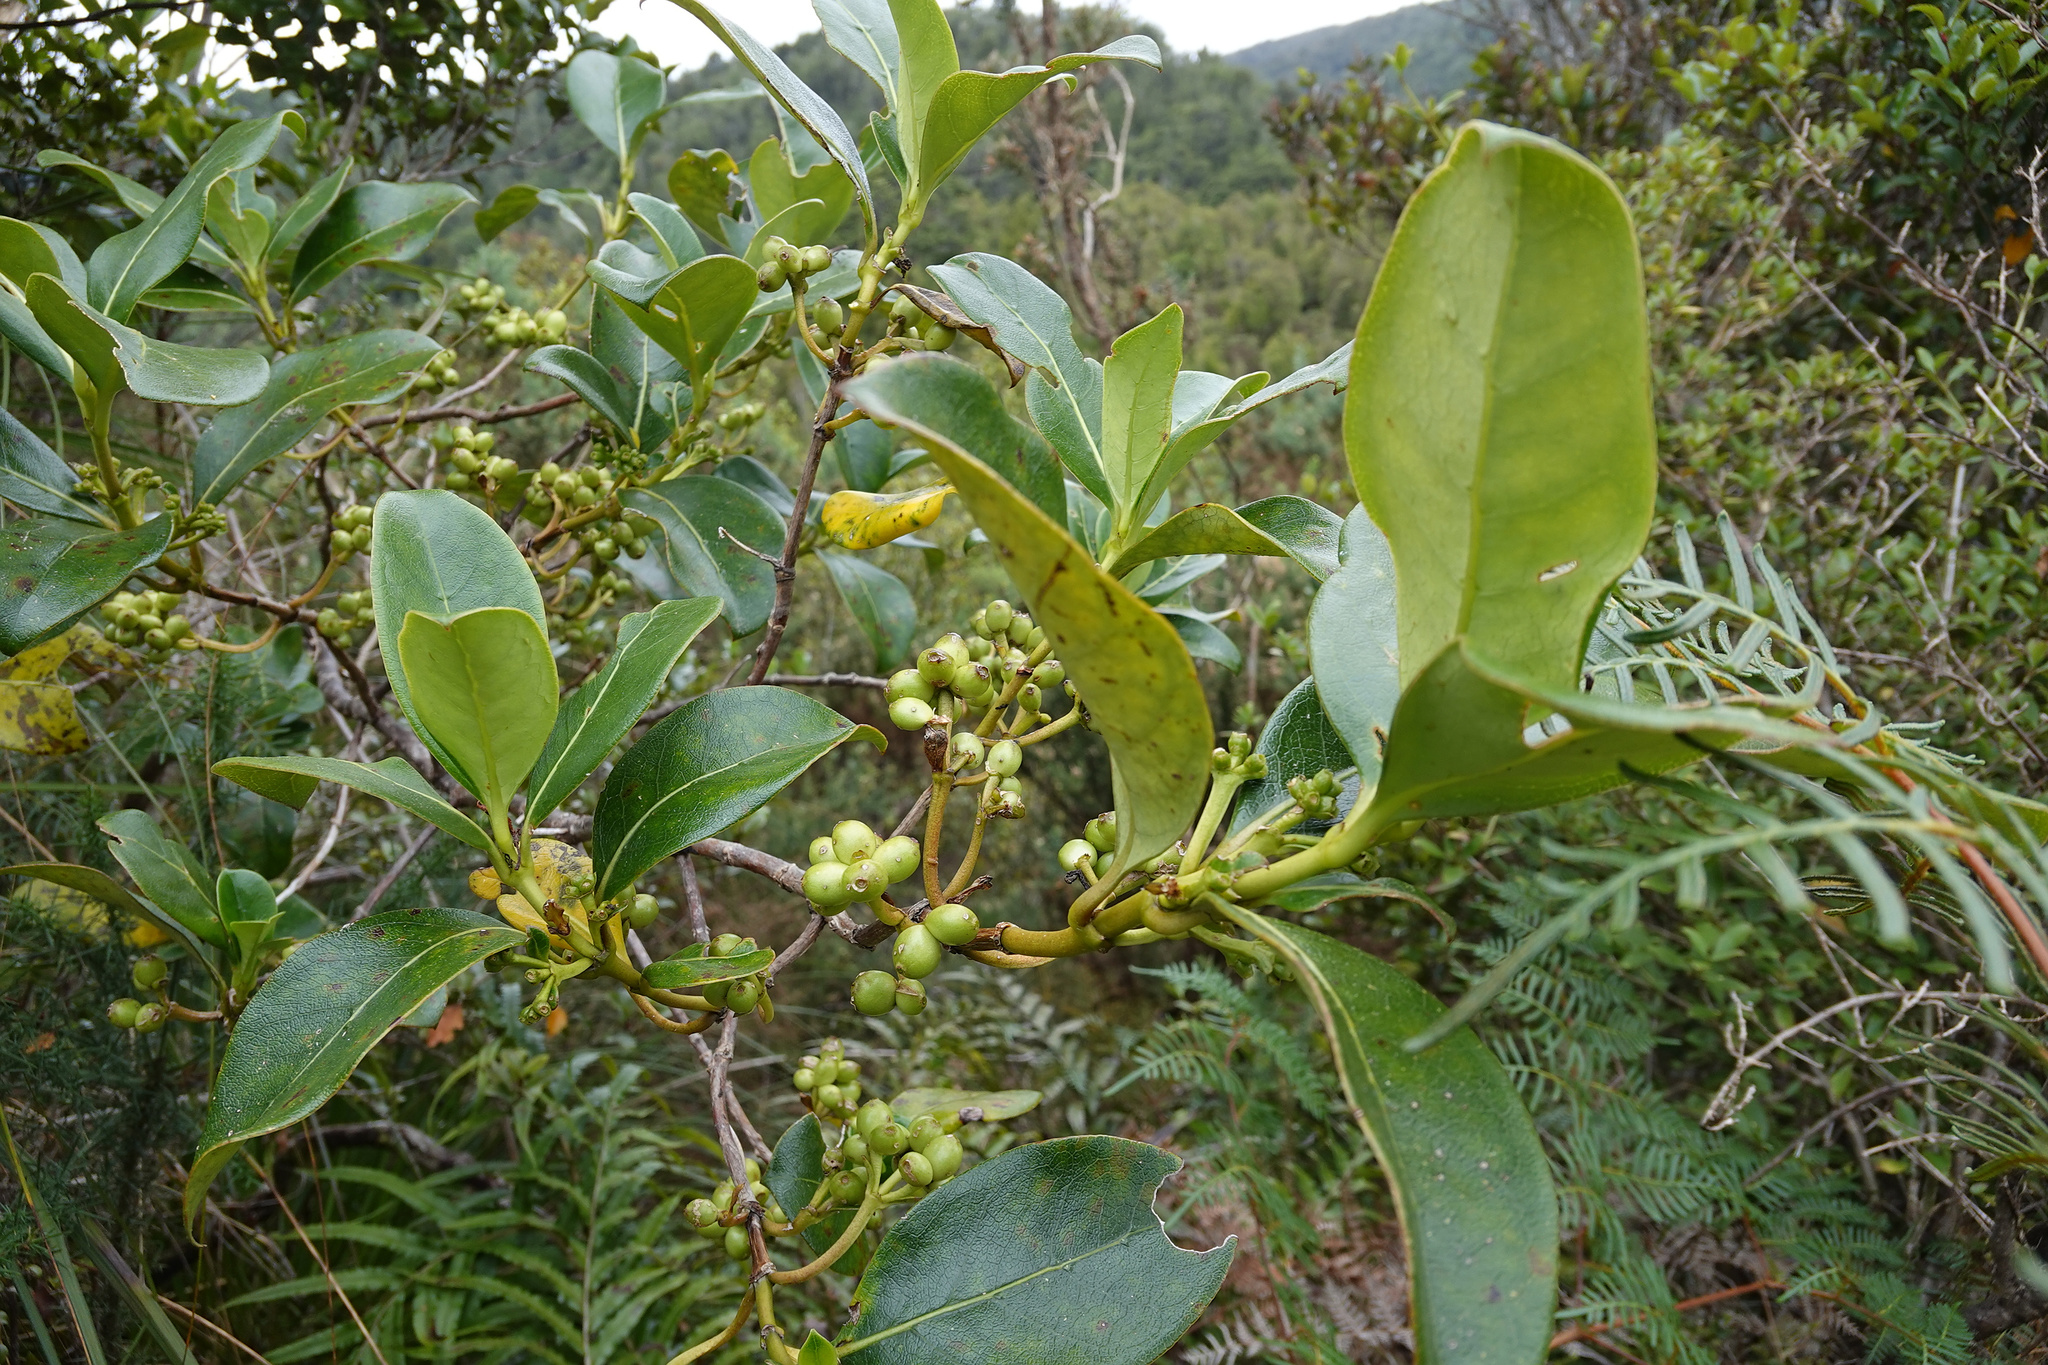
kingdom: Plantae
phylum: Tracheophyta
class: Magnoliopsida
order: Gentianales
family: Rubiaceae
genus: Coprosma
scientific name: Coprosma lucida
